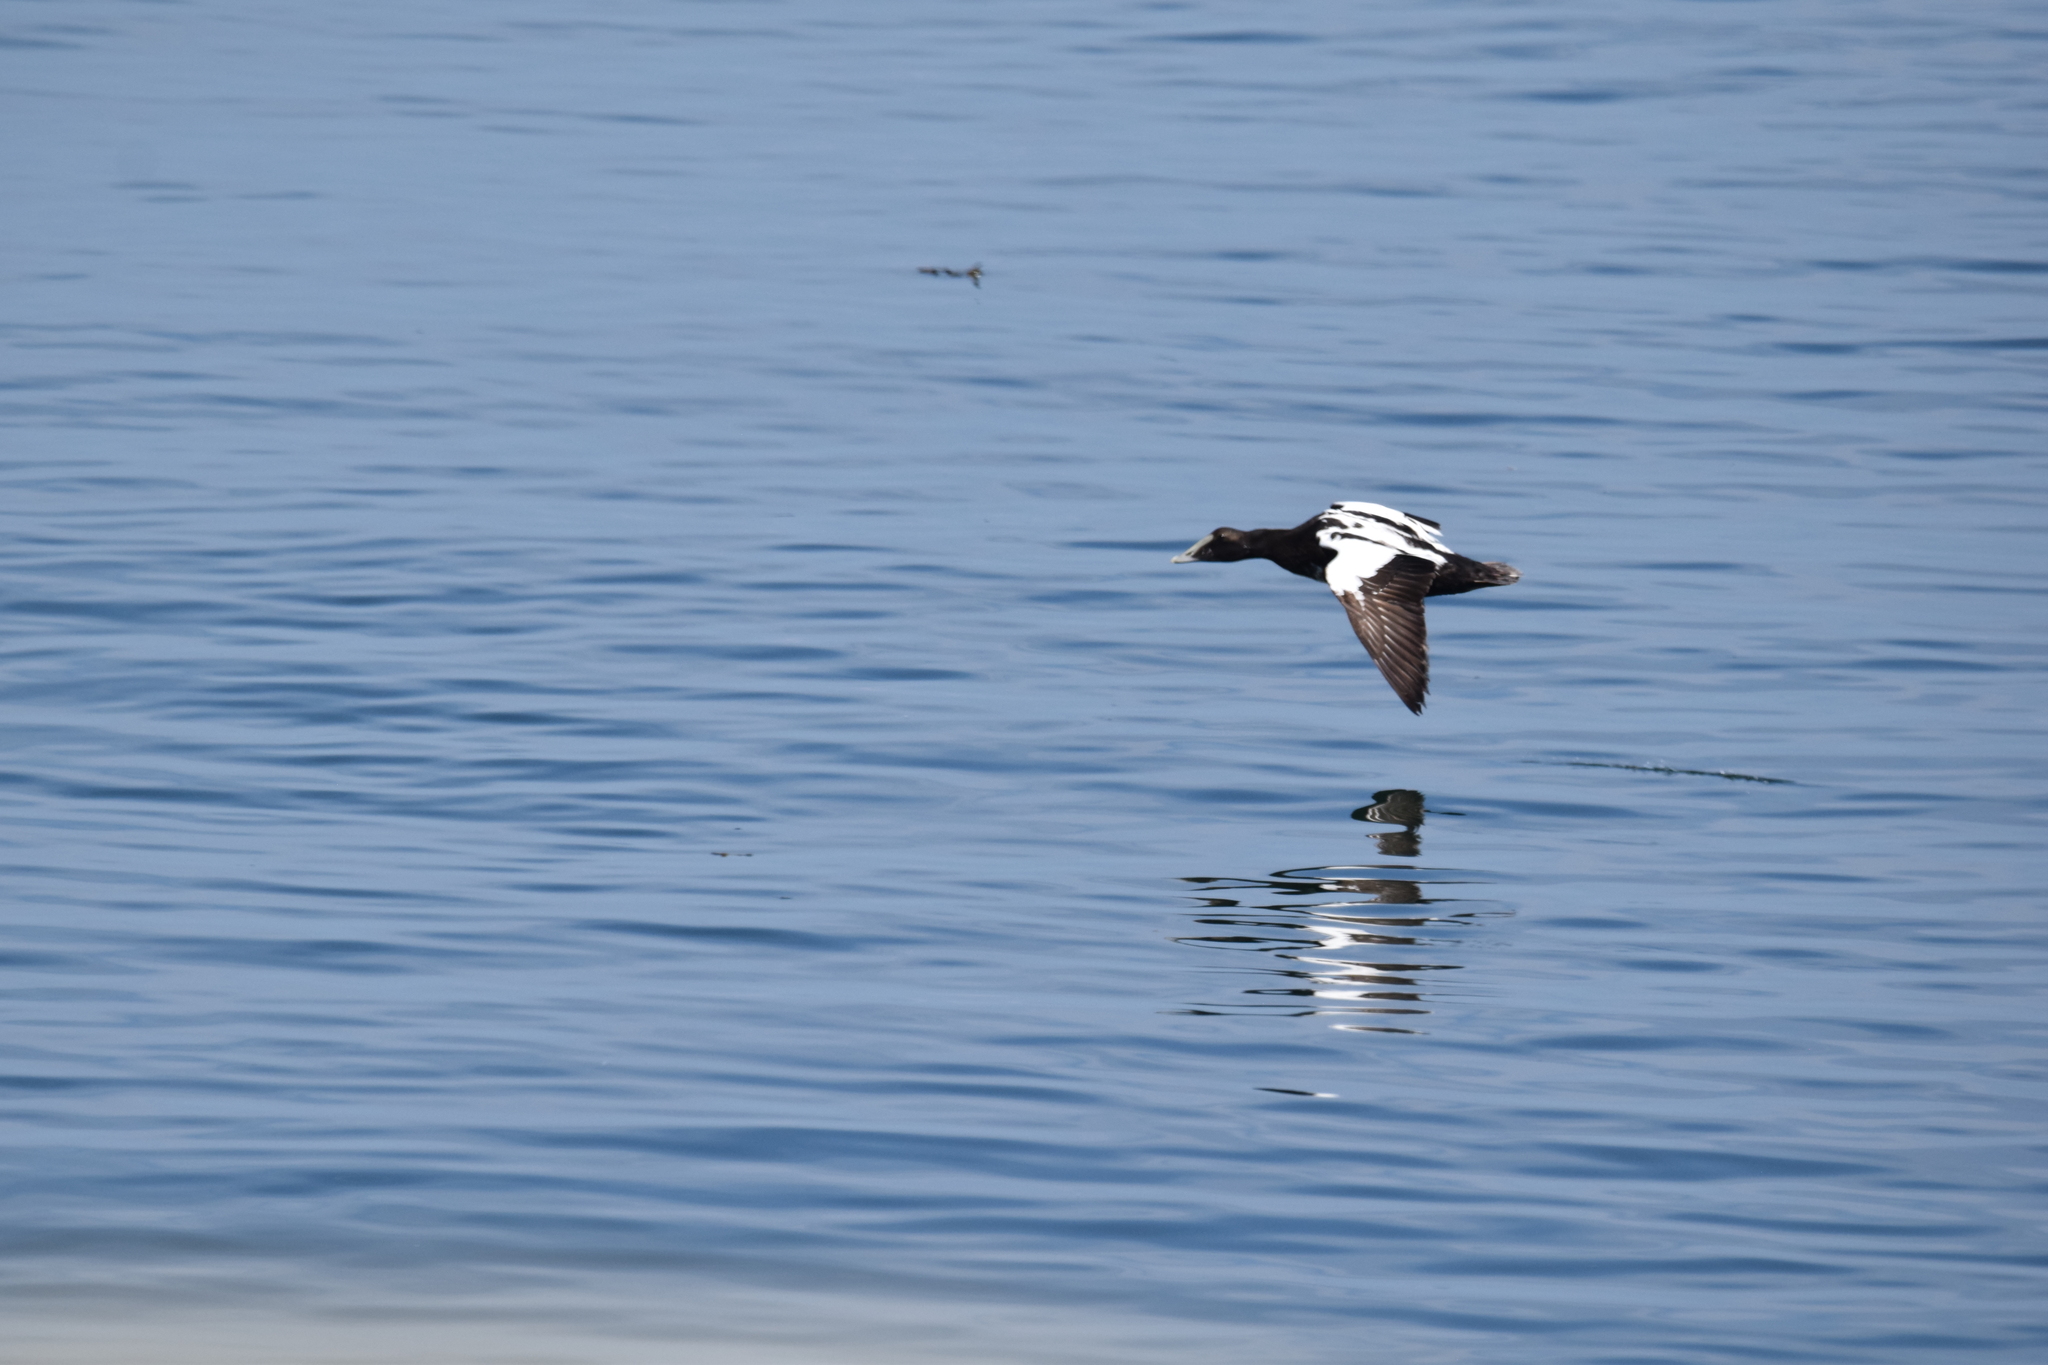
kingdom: Animalia
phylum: Chordata
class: Aves
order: Anseriformes
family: Anatidae
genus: Somateria
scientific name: Somateria mollissima
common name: Common eider
